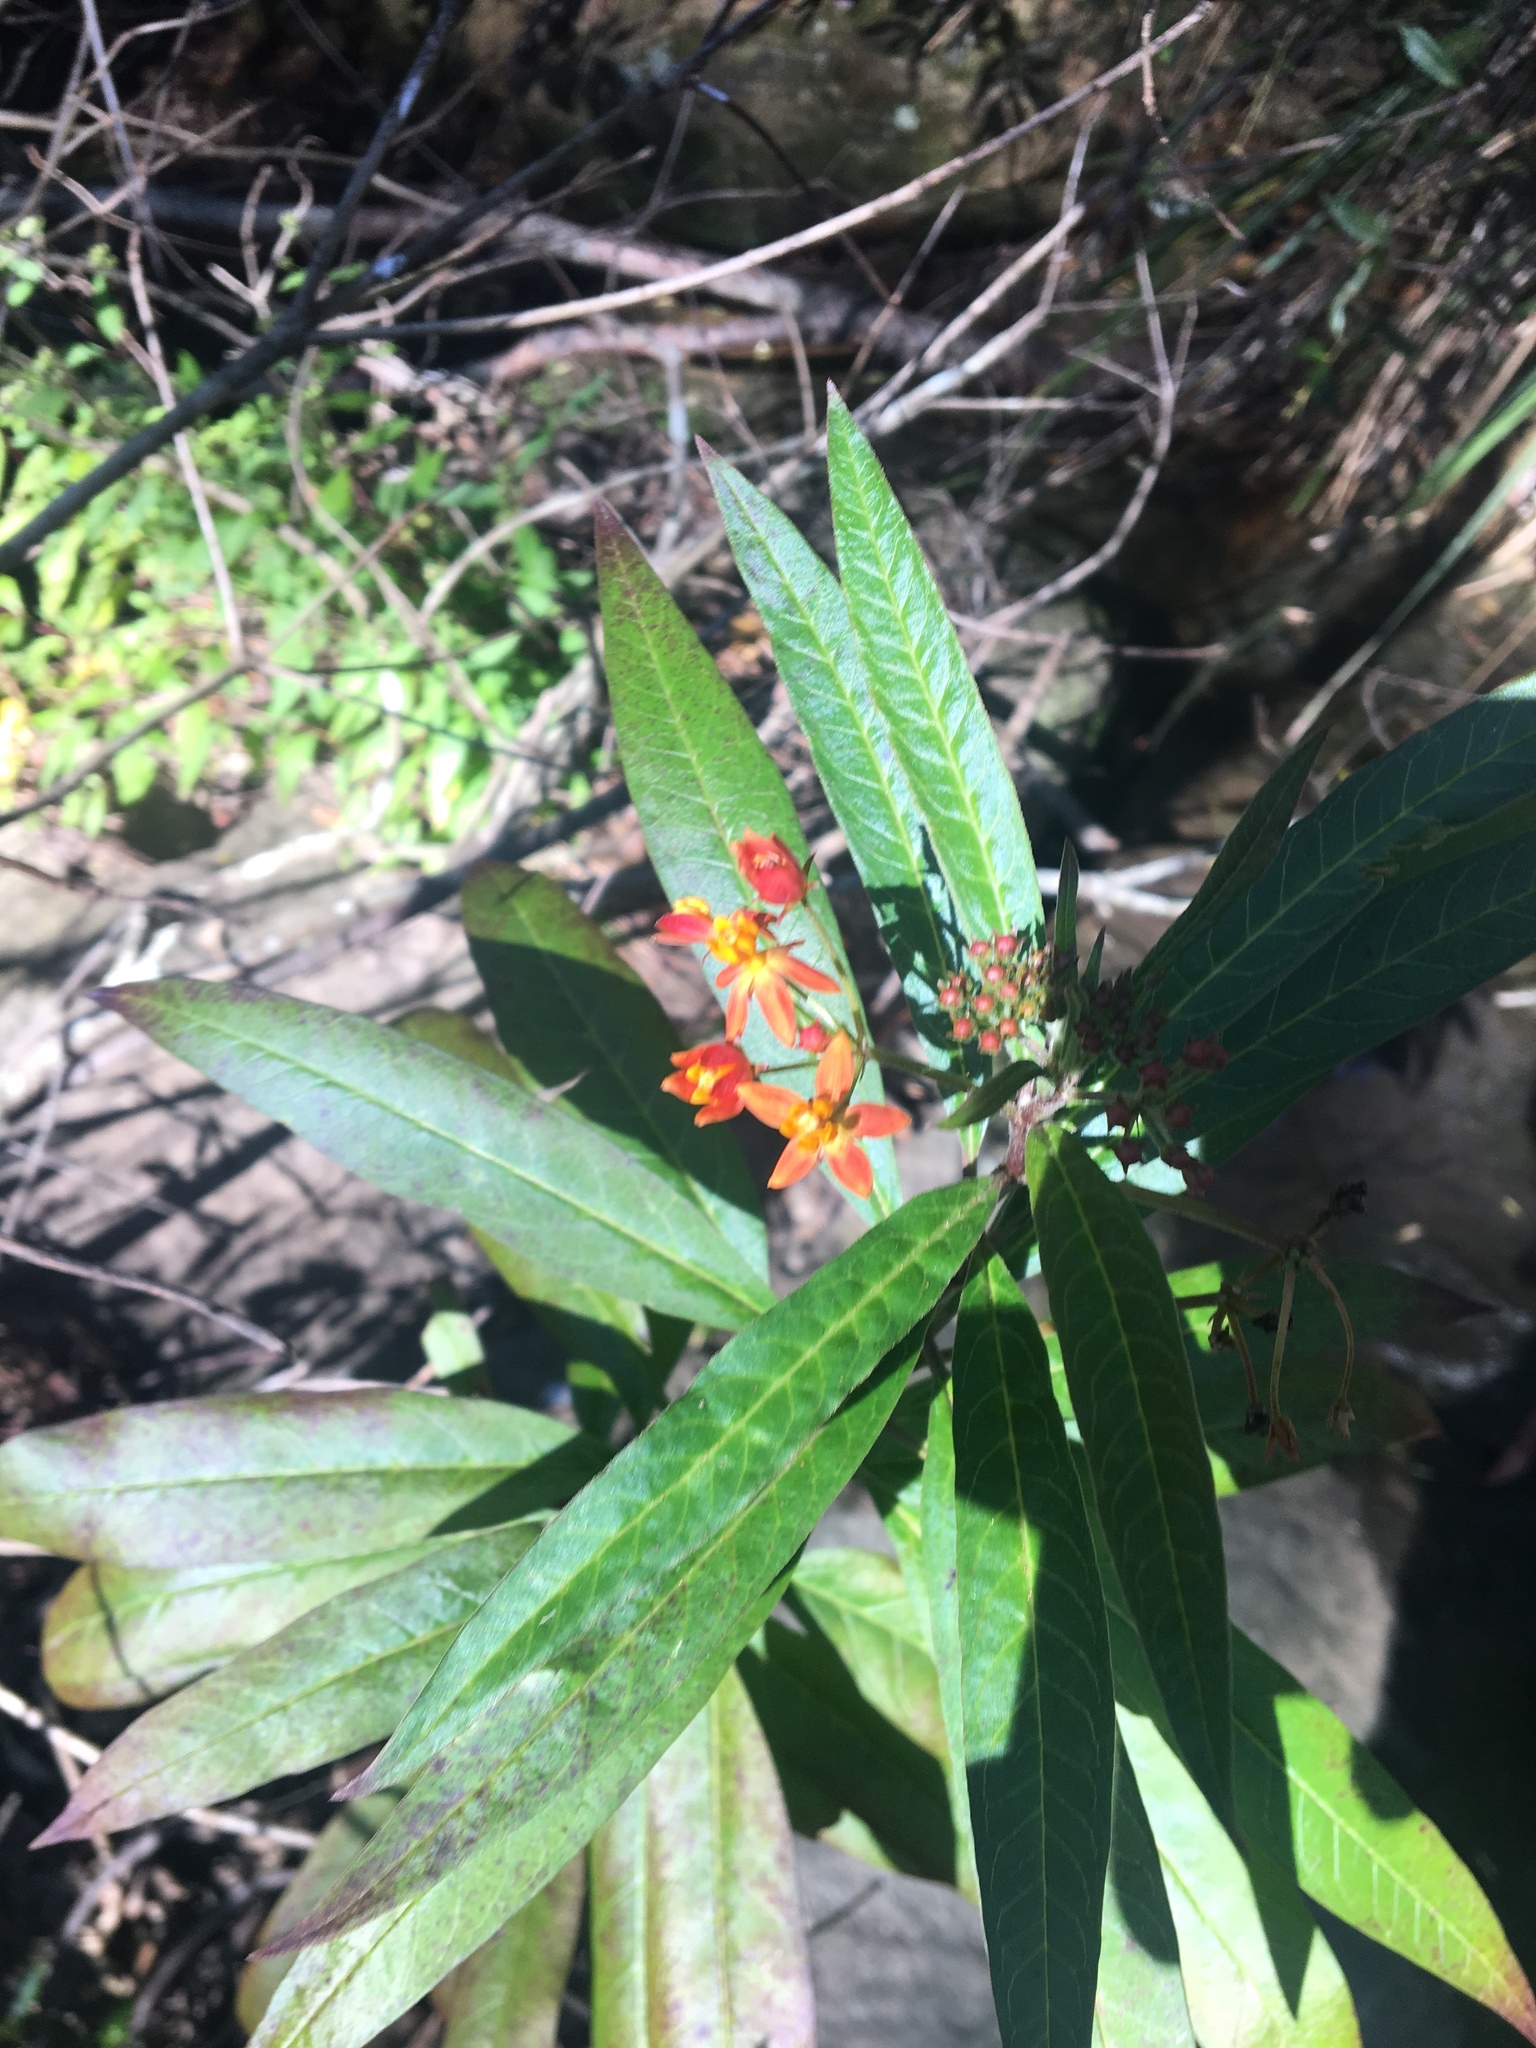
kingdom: Plantae
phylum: Tracheophyta
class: Magnoliopsida
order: Gentianales
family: Apocynaceae
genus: Asclepias
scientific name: Asclepias curassavica
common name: Bloodflower
